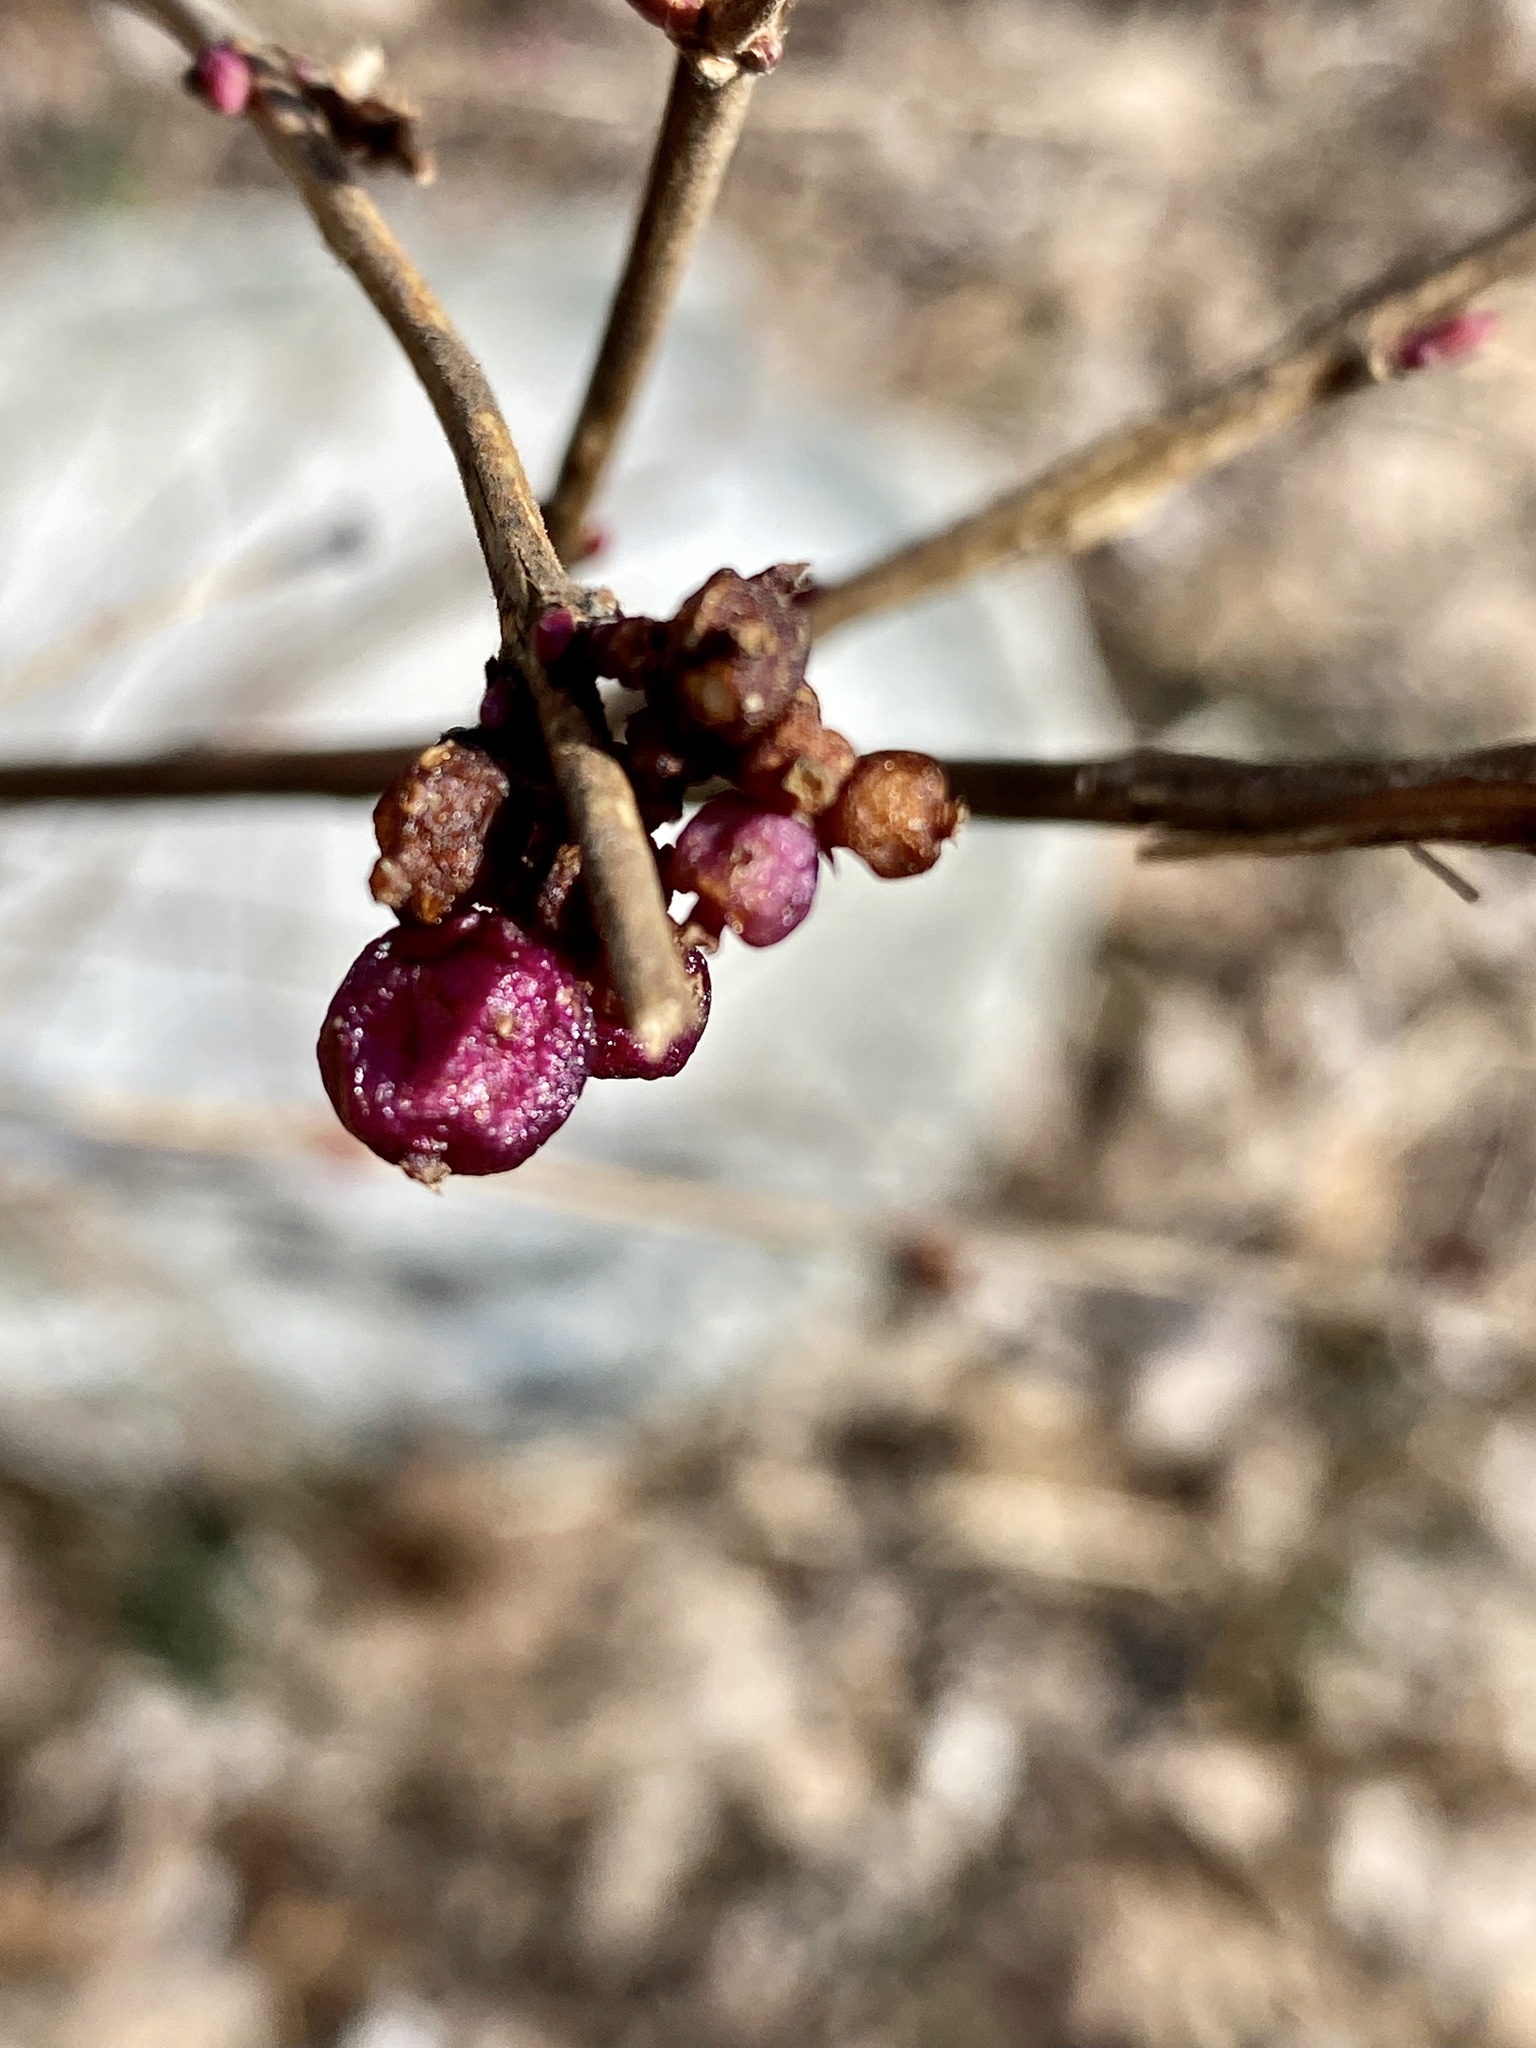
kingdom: Plantae
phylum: Tracheophyta
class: Magnoliopsida
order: Dipsacales
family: Caprifoliaceae
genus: Symphoricarpos
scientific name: Symphoricarpos orbiculatus
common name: Coralberry
